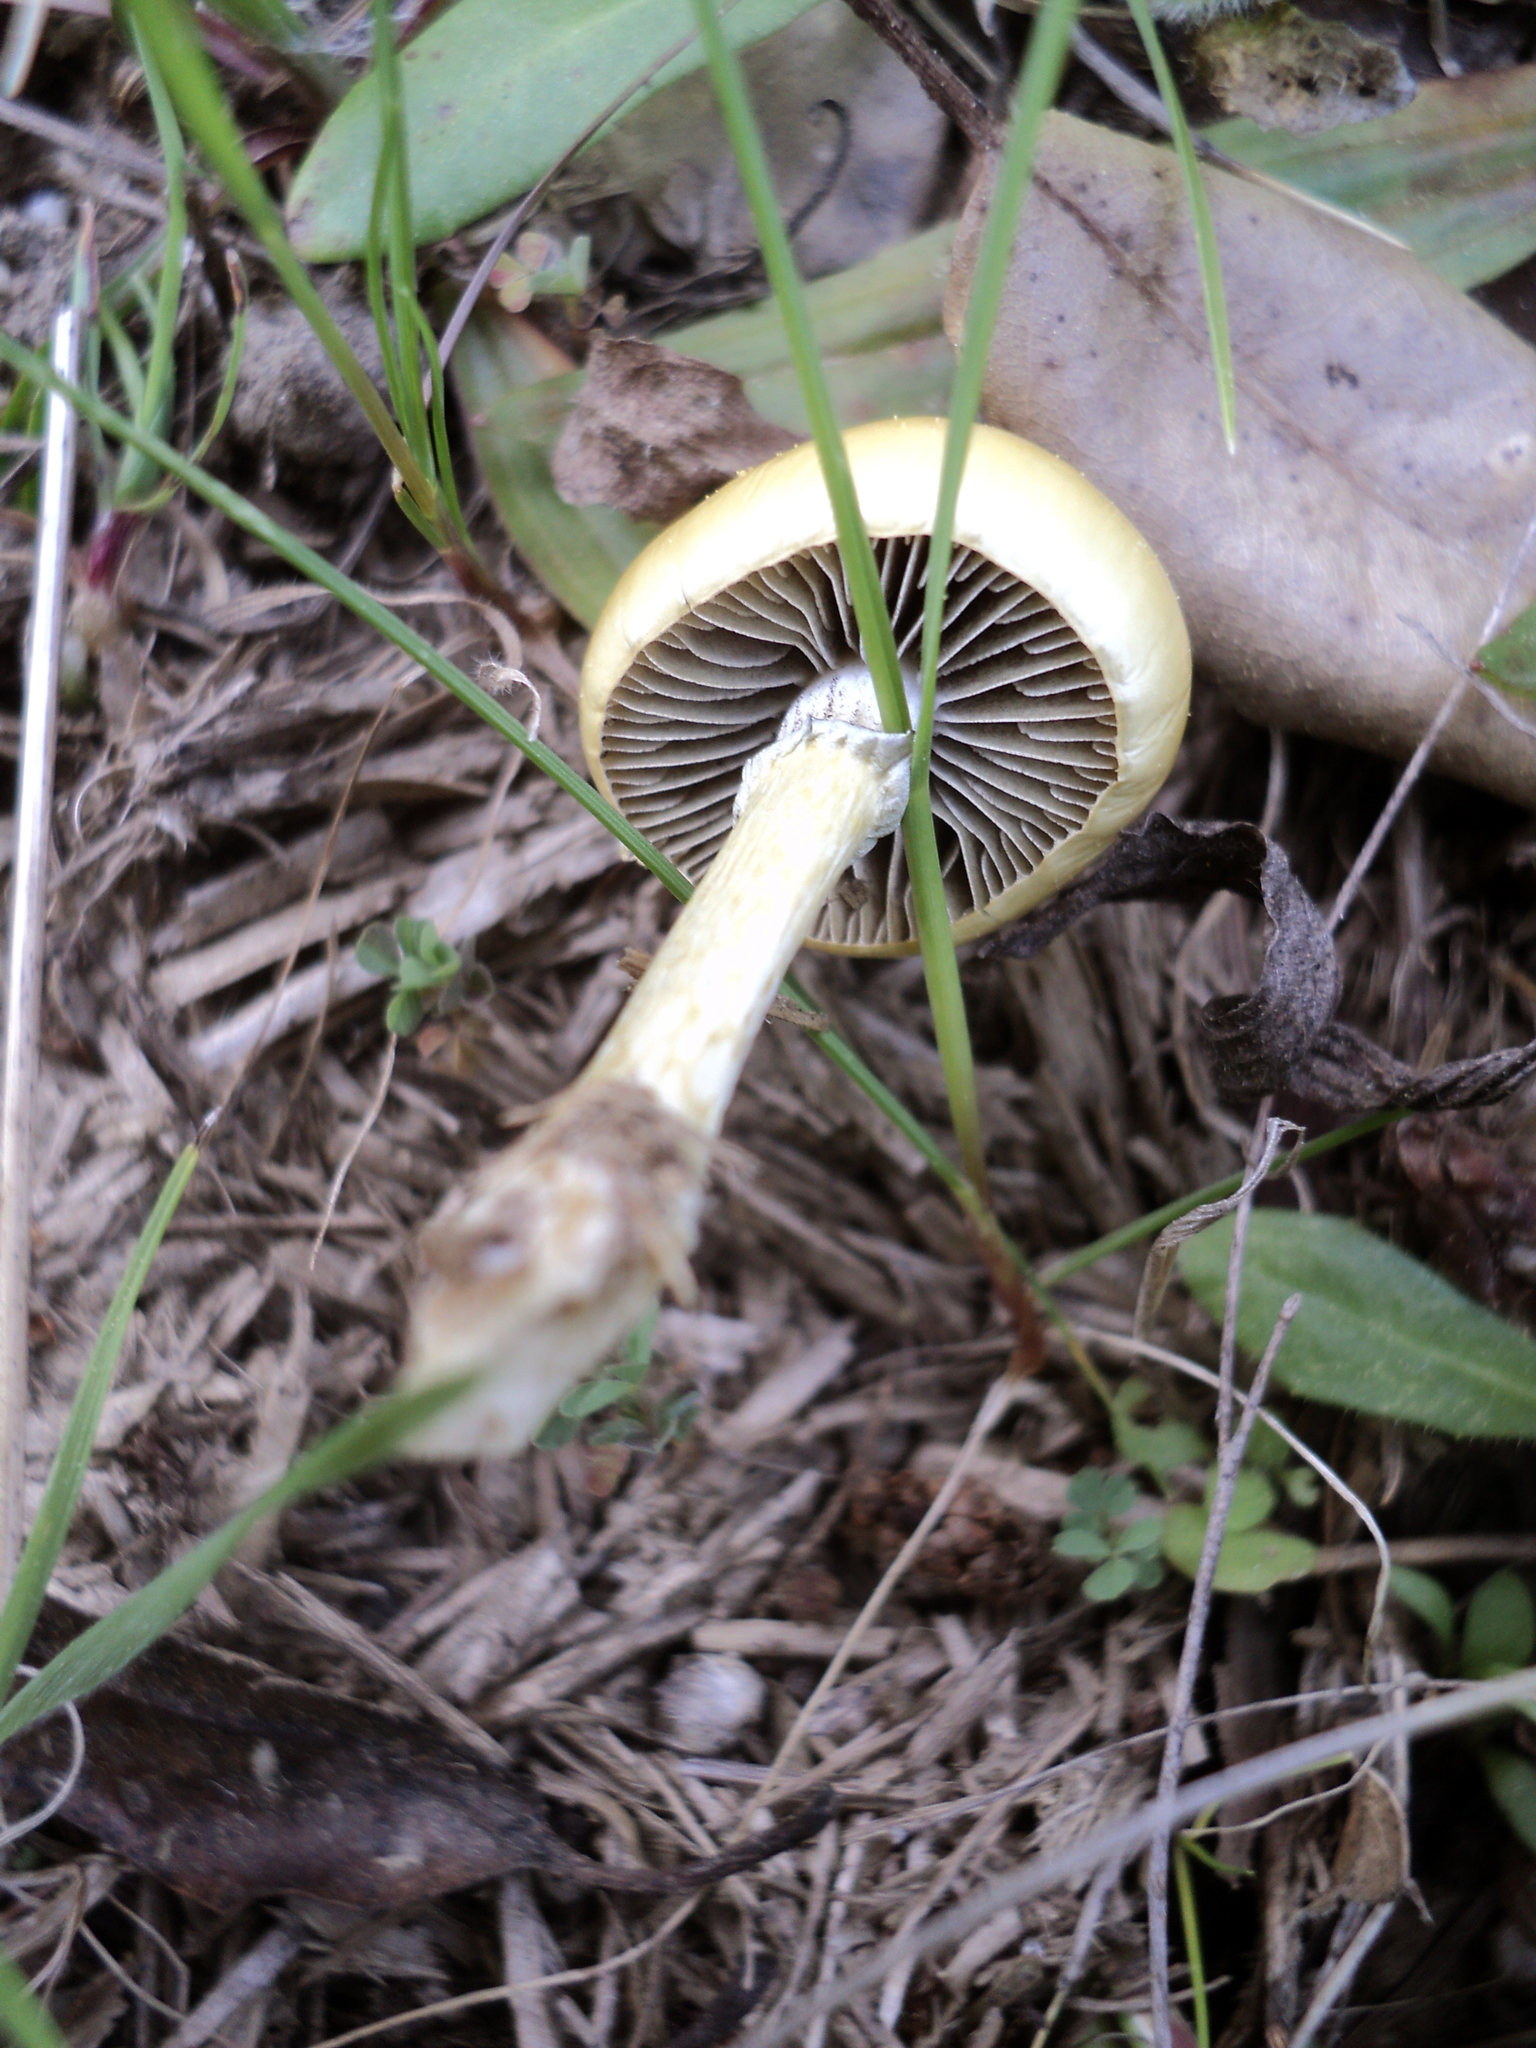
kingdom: Fungi
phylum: Basidiomycota
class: Agaricomycetes
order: Agaricales
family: Strophariaceae
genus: Protostropharia
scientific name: Protostropharia semiglobata
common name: Dung roundhead
